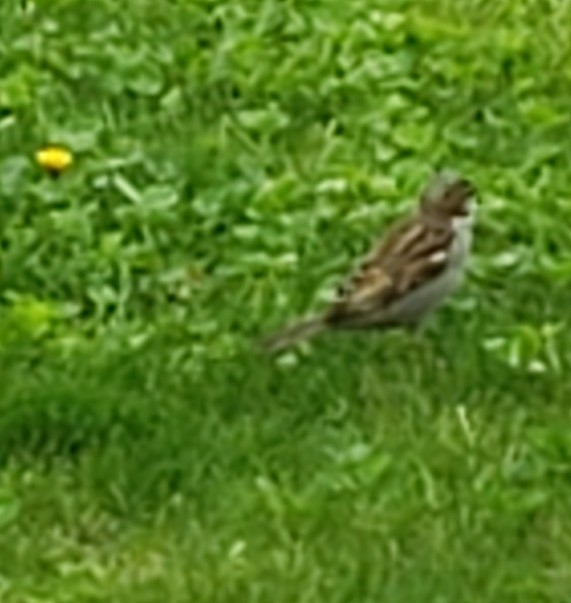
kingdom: Animalia
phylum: Chordata
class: Aves
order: Passeriformes
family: Passeridae
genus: Passer
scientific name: Passer domesticus
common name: House sparrow
